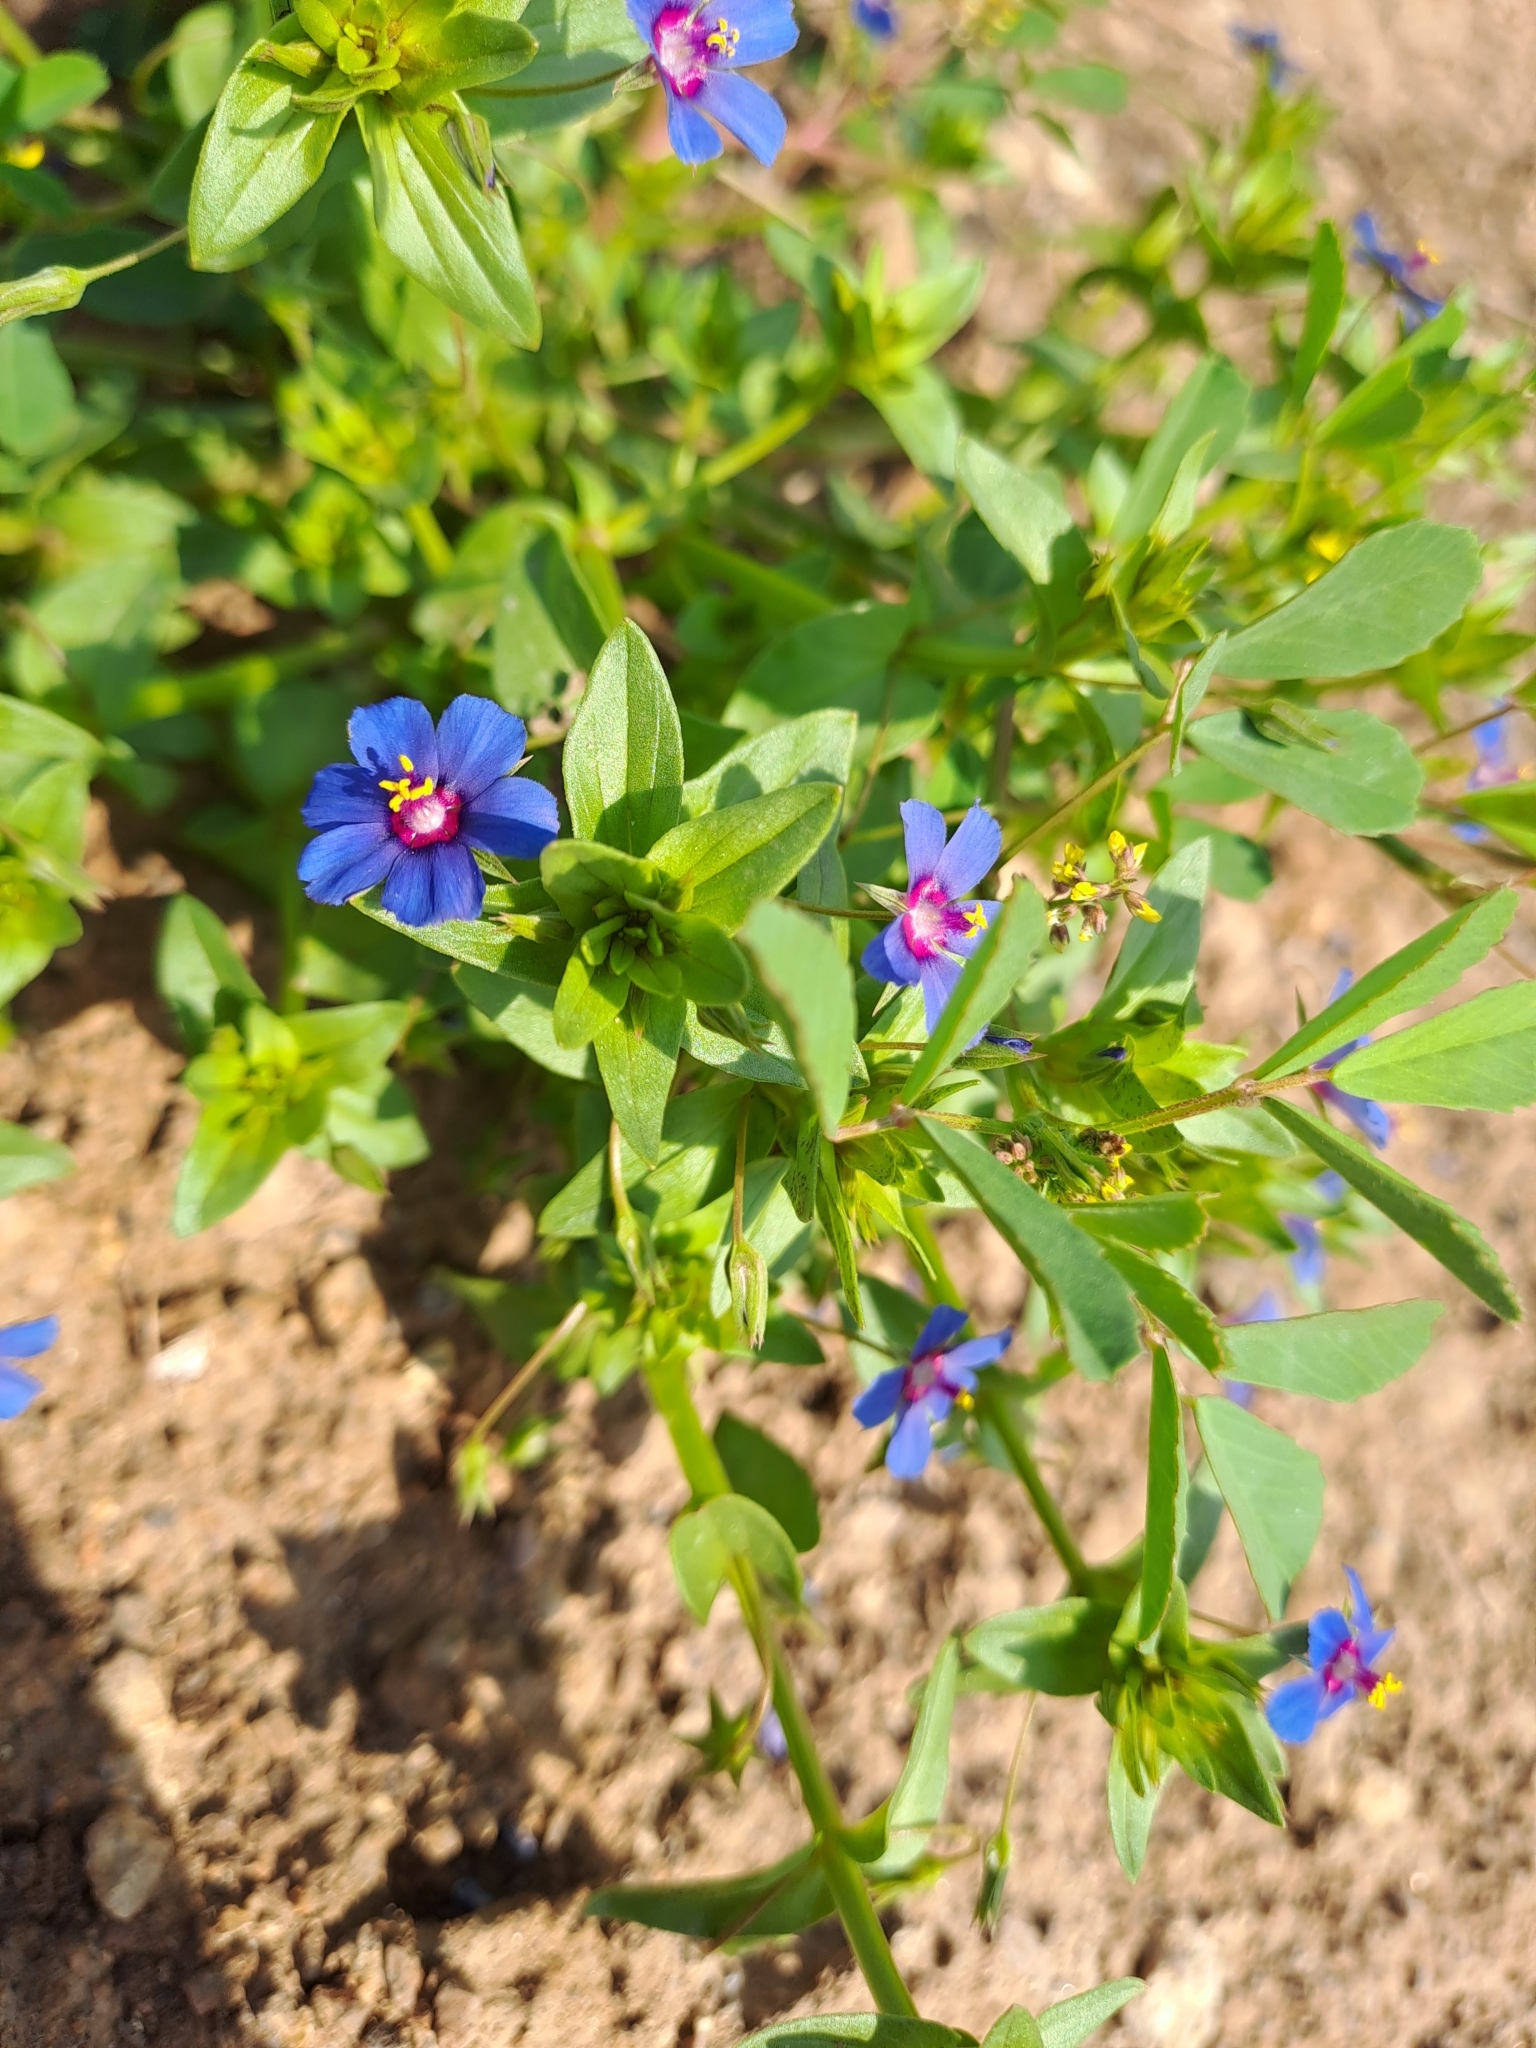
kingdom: Plantae
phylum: Tracheophyta
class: Magnoliopsida
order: Ericales
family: Primulaceae
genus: Lysimachia
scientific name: Lysimachia loeflingii
